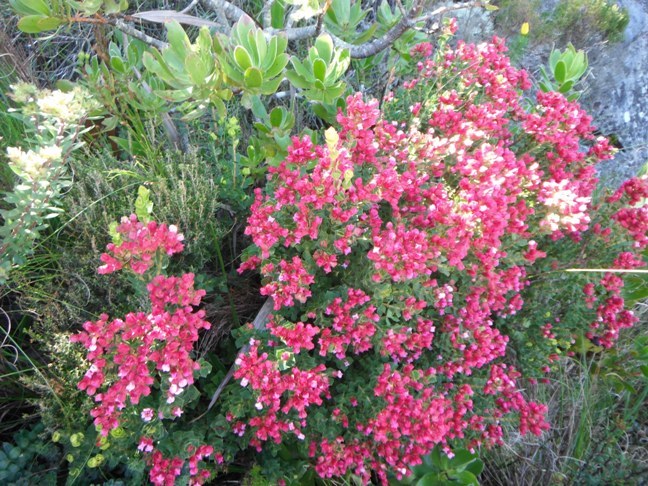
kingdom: Plantae
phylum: Tracheophyta
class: Magnoliopsida
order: Myrtales
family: Penaeaceae
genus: Brachysiphon
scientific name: Brachysiphon fucatus
